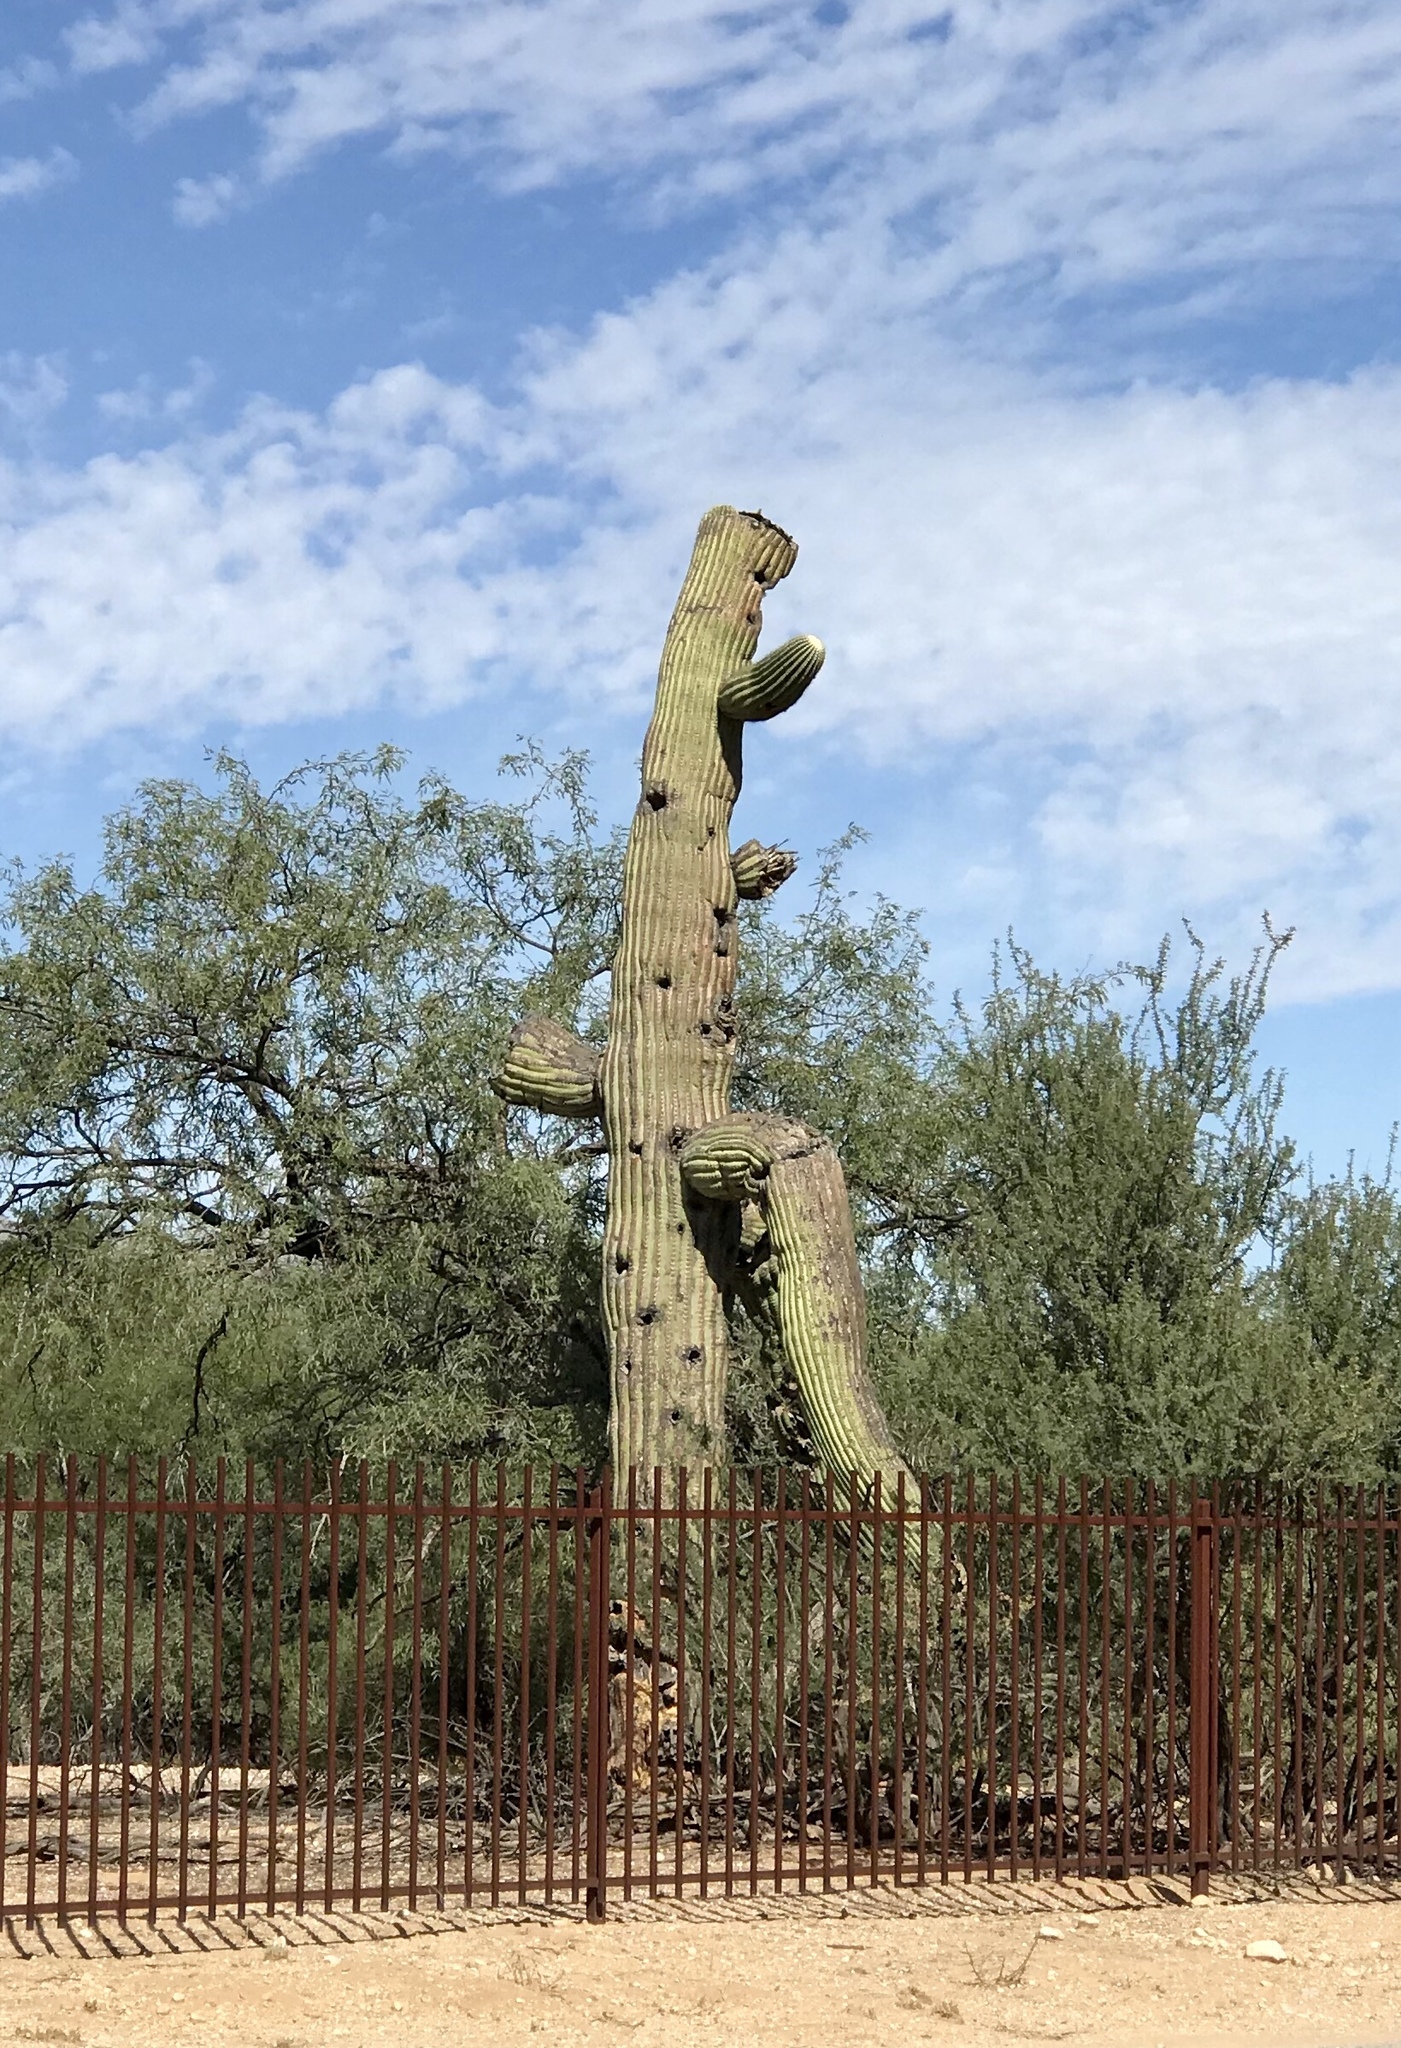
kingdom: Plantae
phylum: Tracheophyta
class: Magnoliopsida
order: Caryophyllales
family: Cactaceae
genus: Carnegiea
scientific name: Carnegiea gigantea
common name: Saguaro
